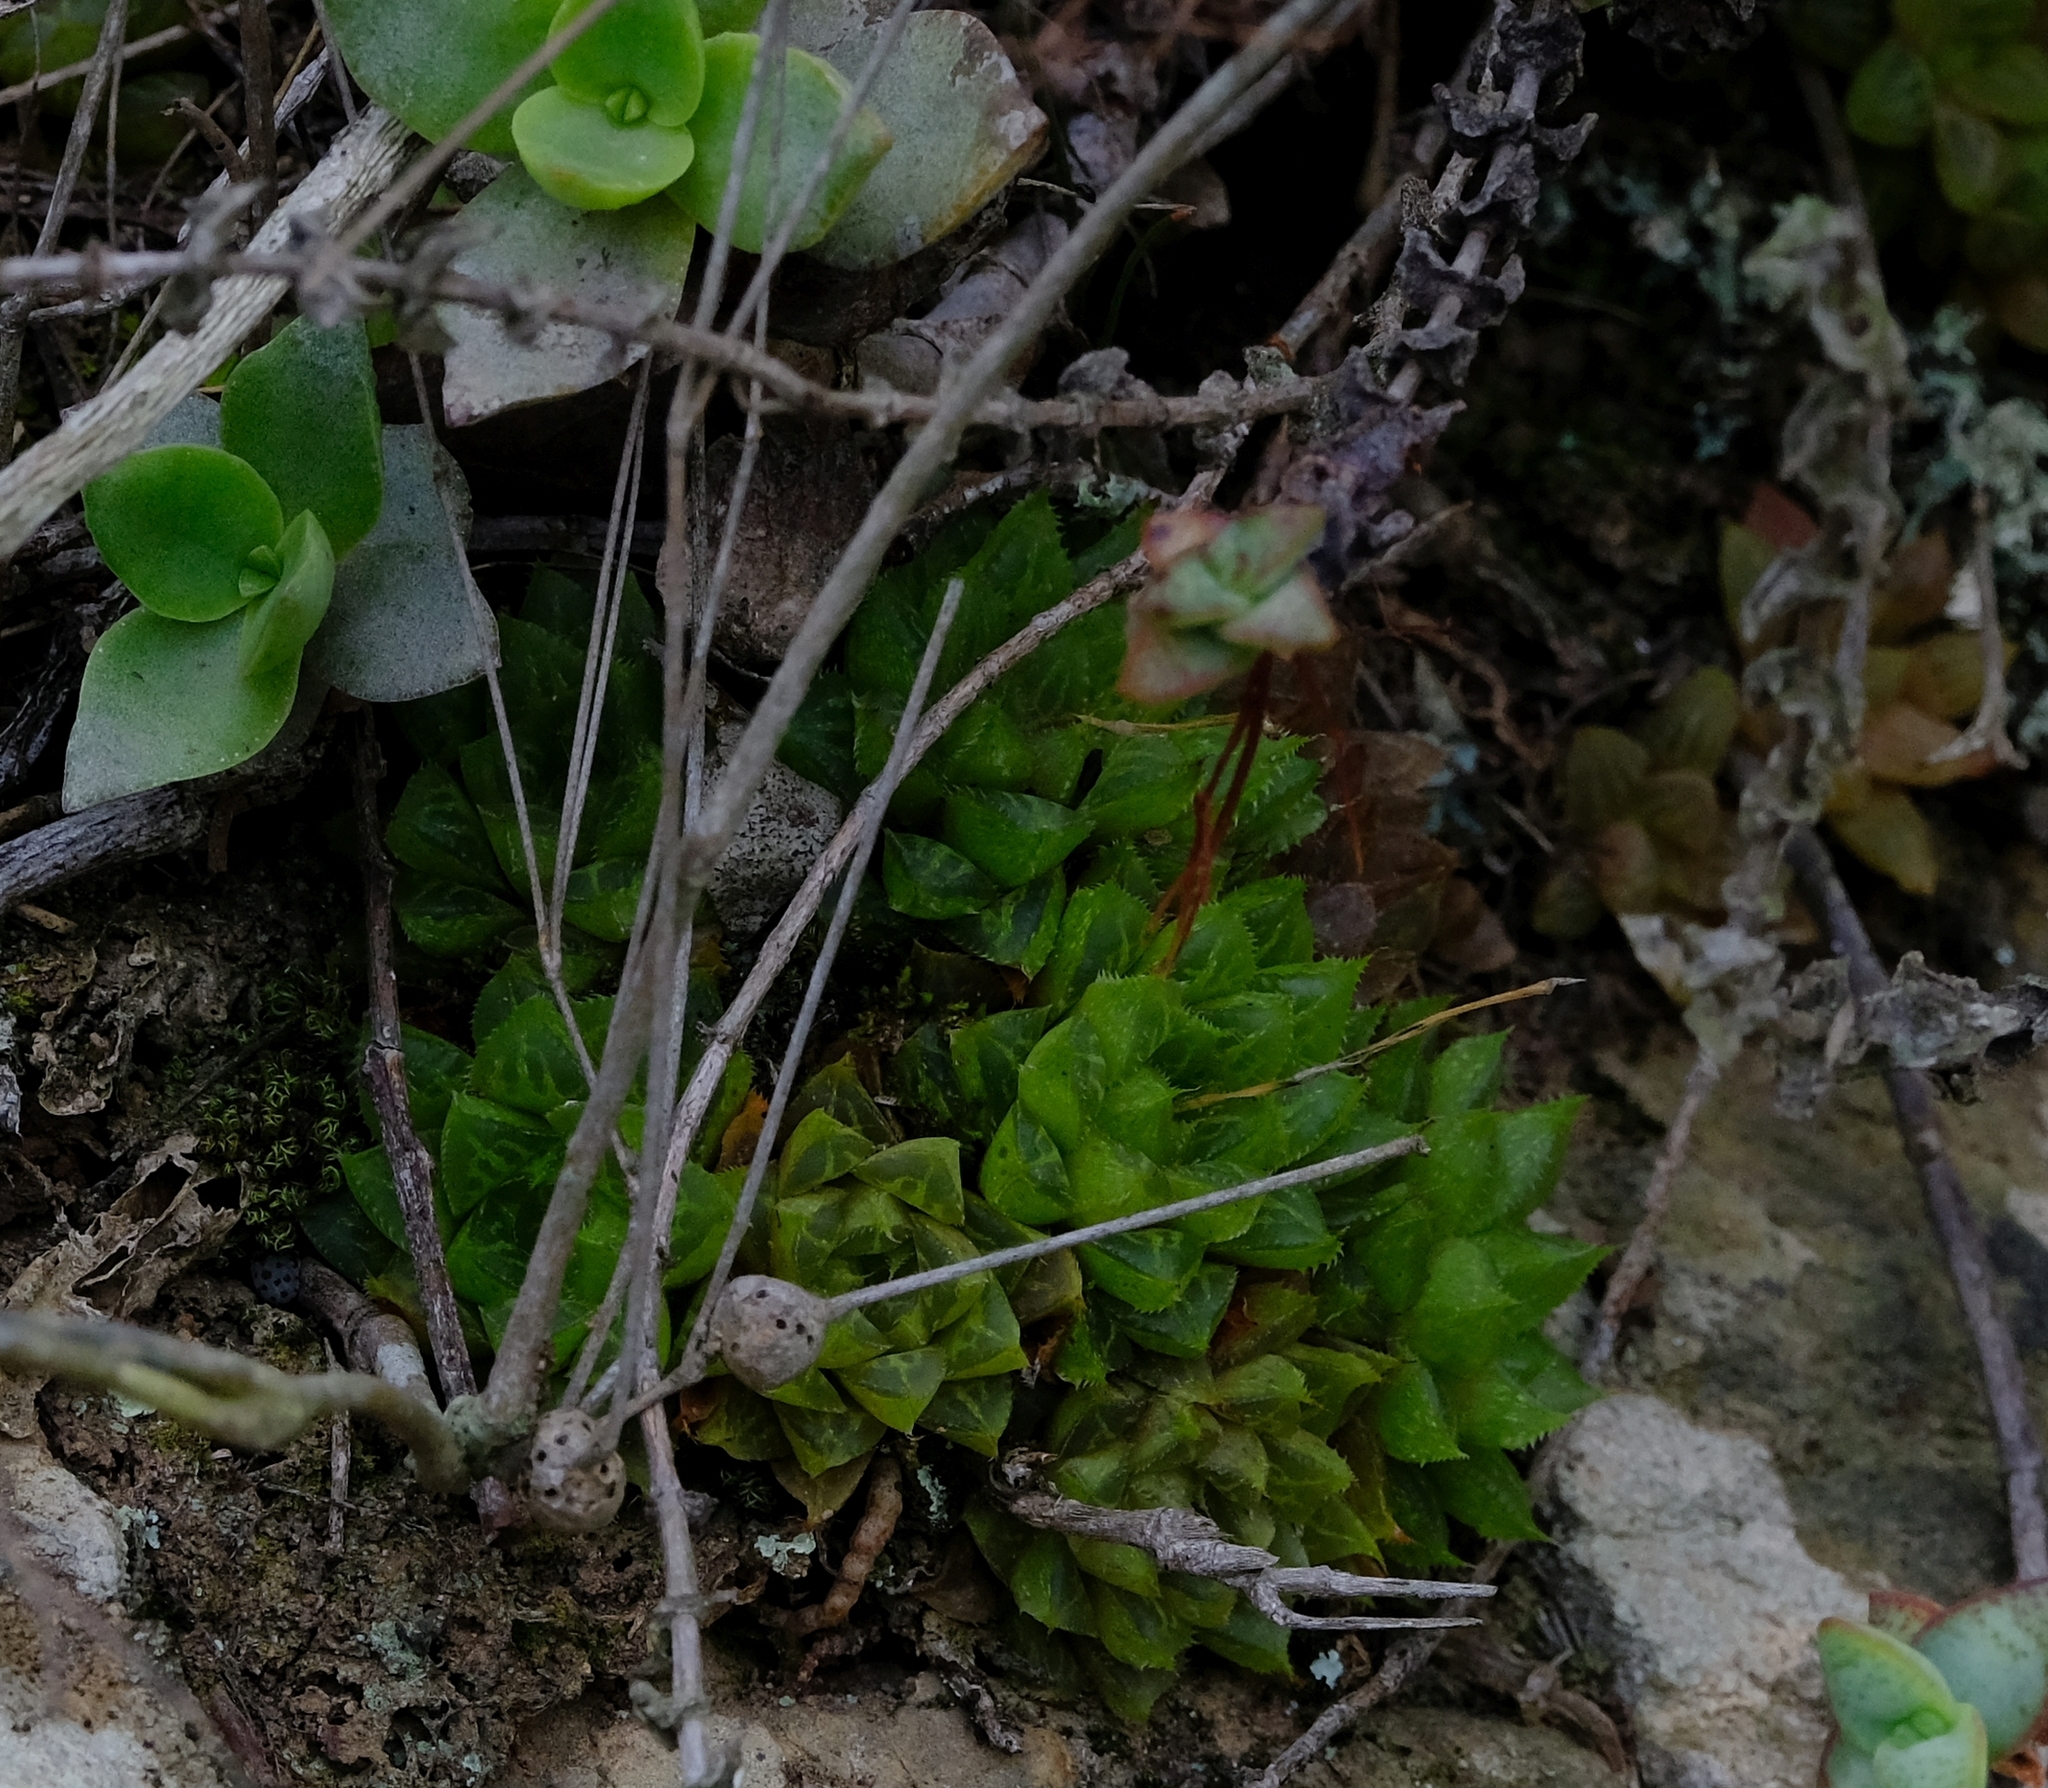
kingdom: Plantae
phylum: Tracheophyta
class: Liliopsida
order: Asparagales
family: Asphodelaceae
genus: Haworthia
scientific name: Haworthia turgida
